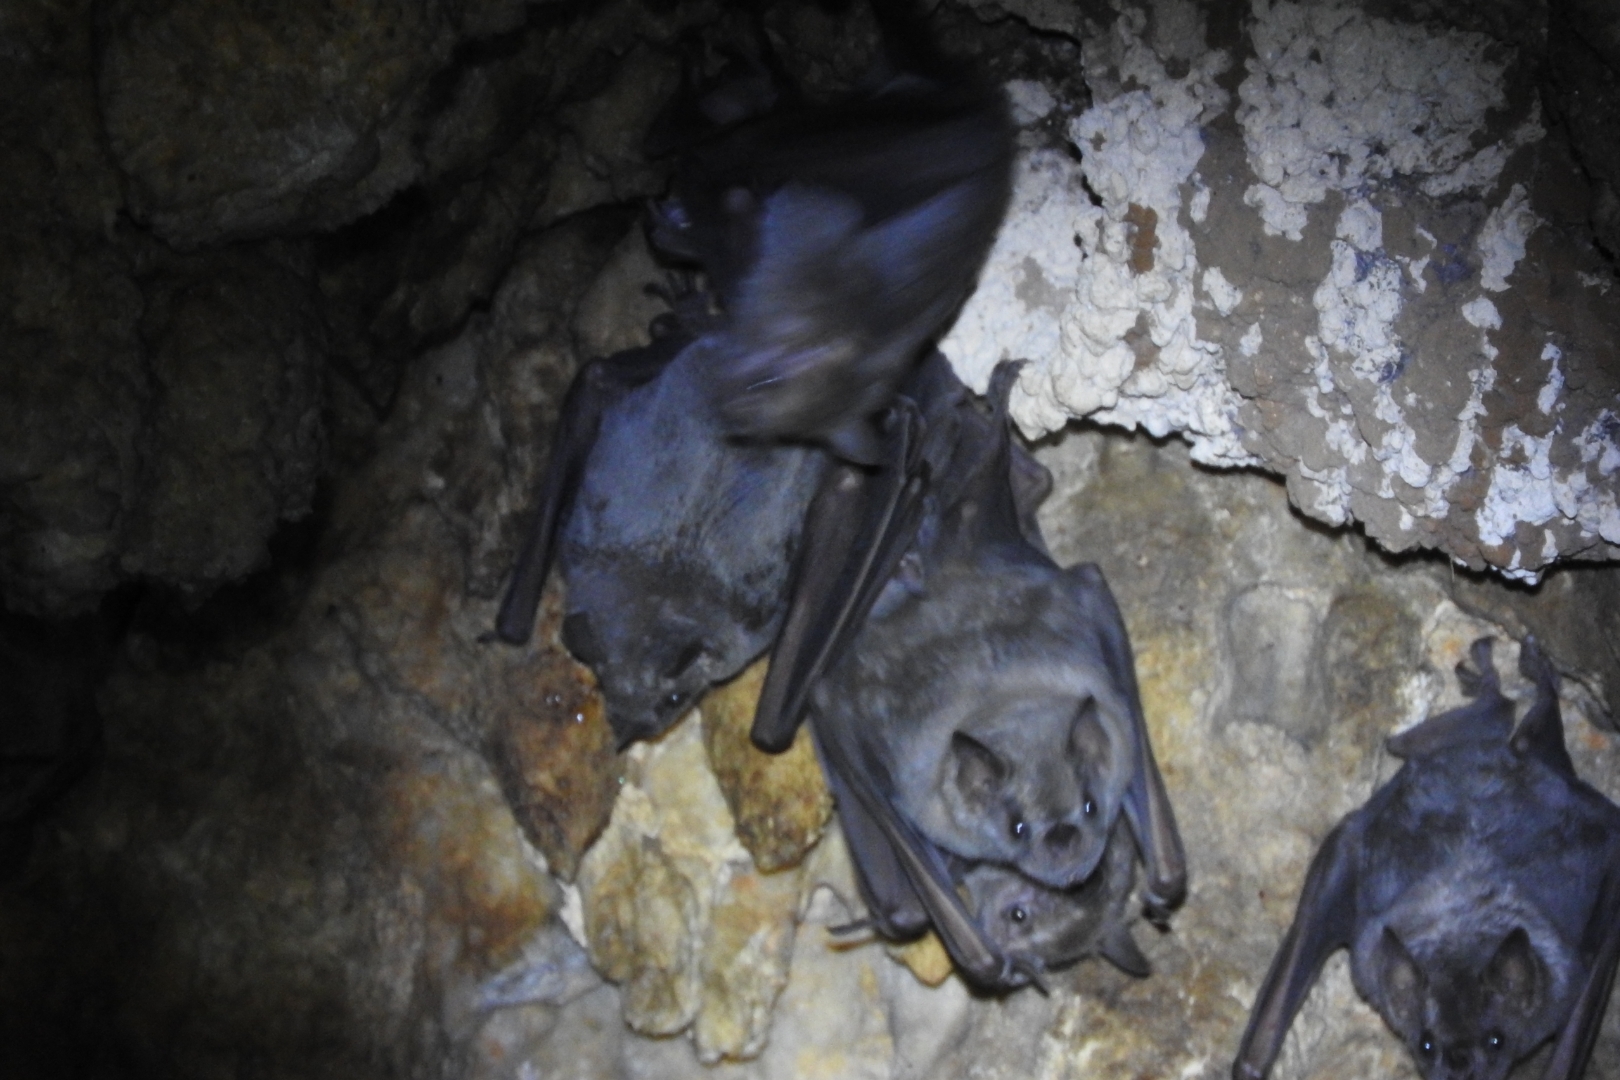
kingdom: Animalia
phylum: Chordata
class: Mammalia
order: Chiroptera
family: Phyllostomidae
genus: Artibeus
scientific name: Artibeus jamaicensis
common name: Jamaican fruit-eating bat
